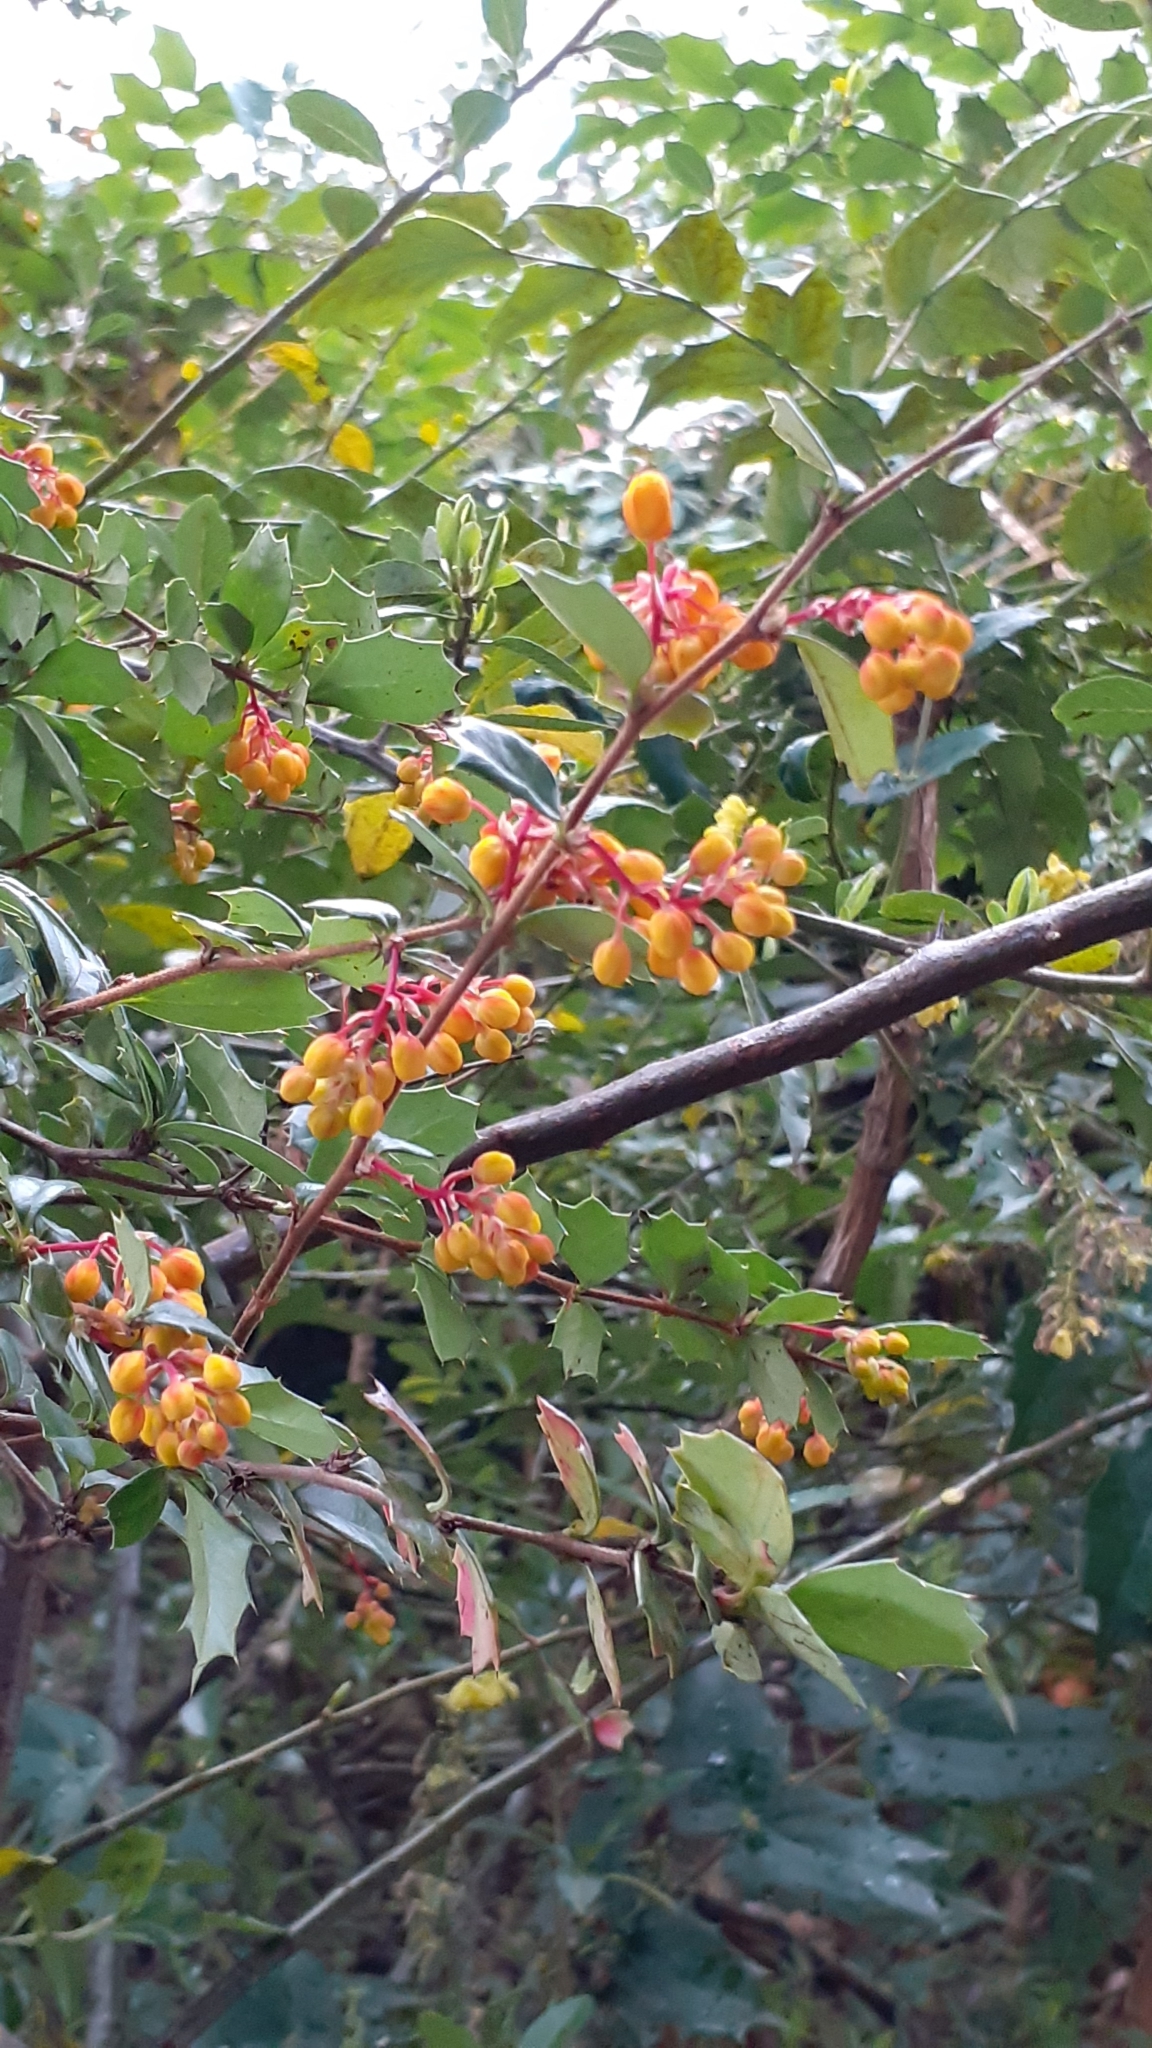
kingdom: Plantae
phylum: Tracheophyta
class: Magnoliopsida
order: Ranunculales
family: Berberidaceae
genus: Berberis
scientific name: Berberis darwinii
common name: Darwin's barberry
